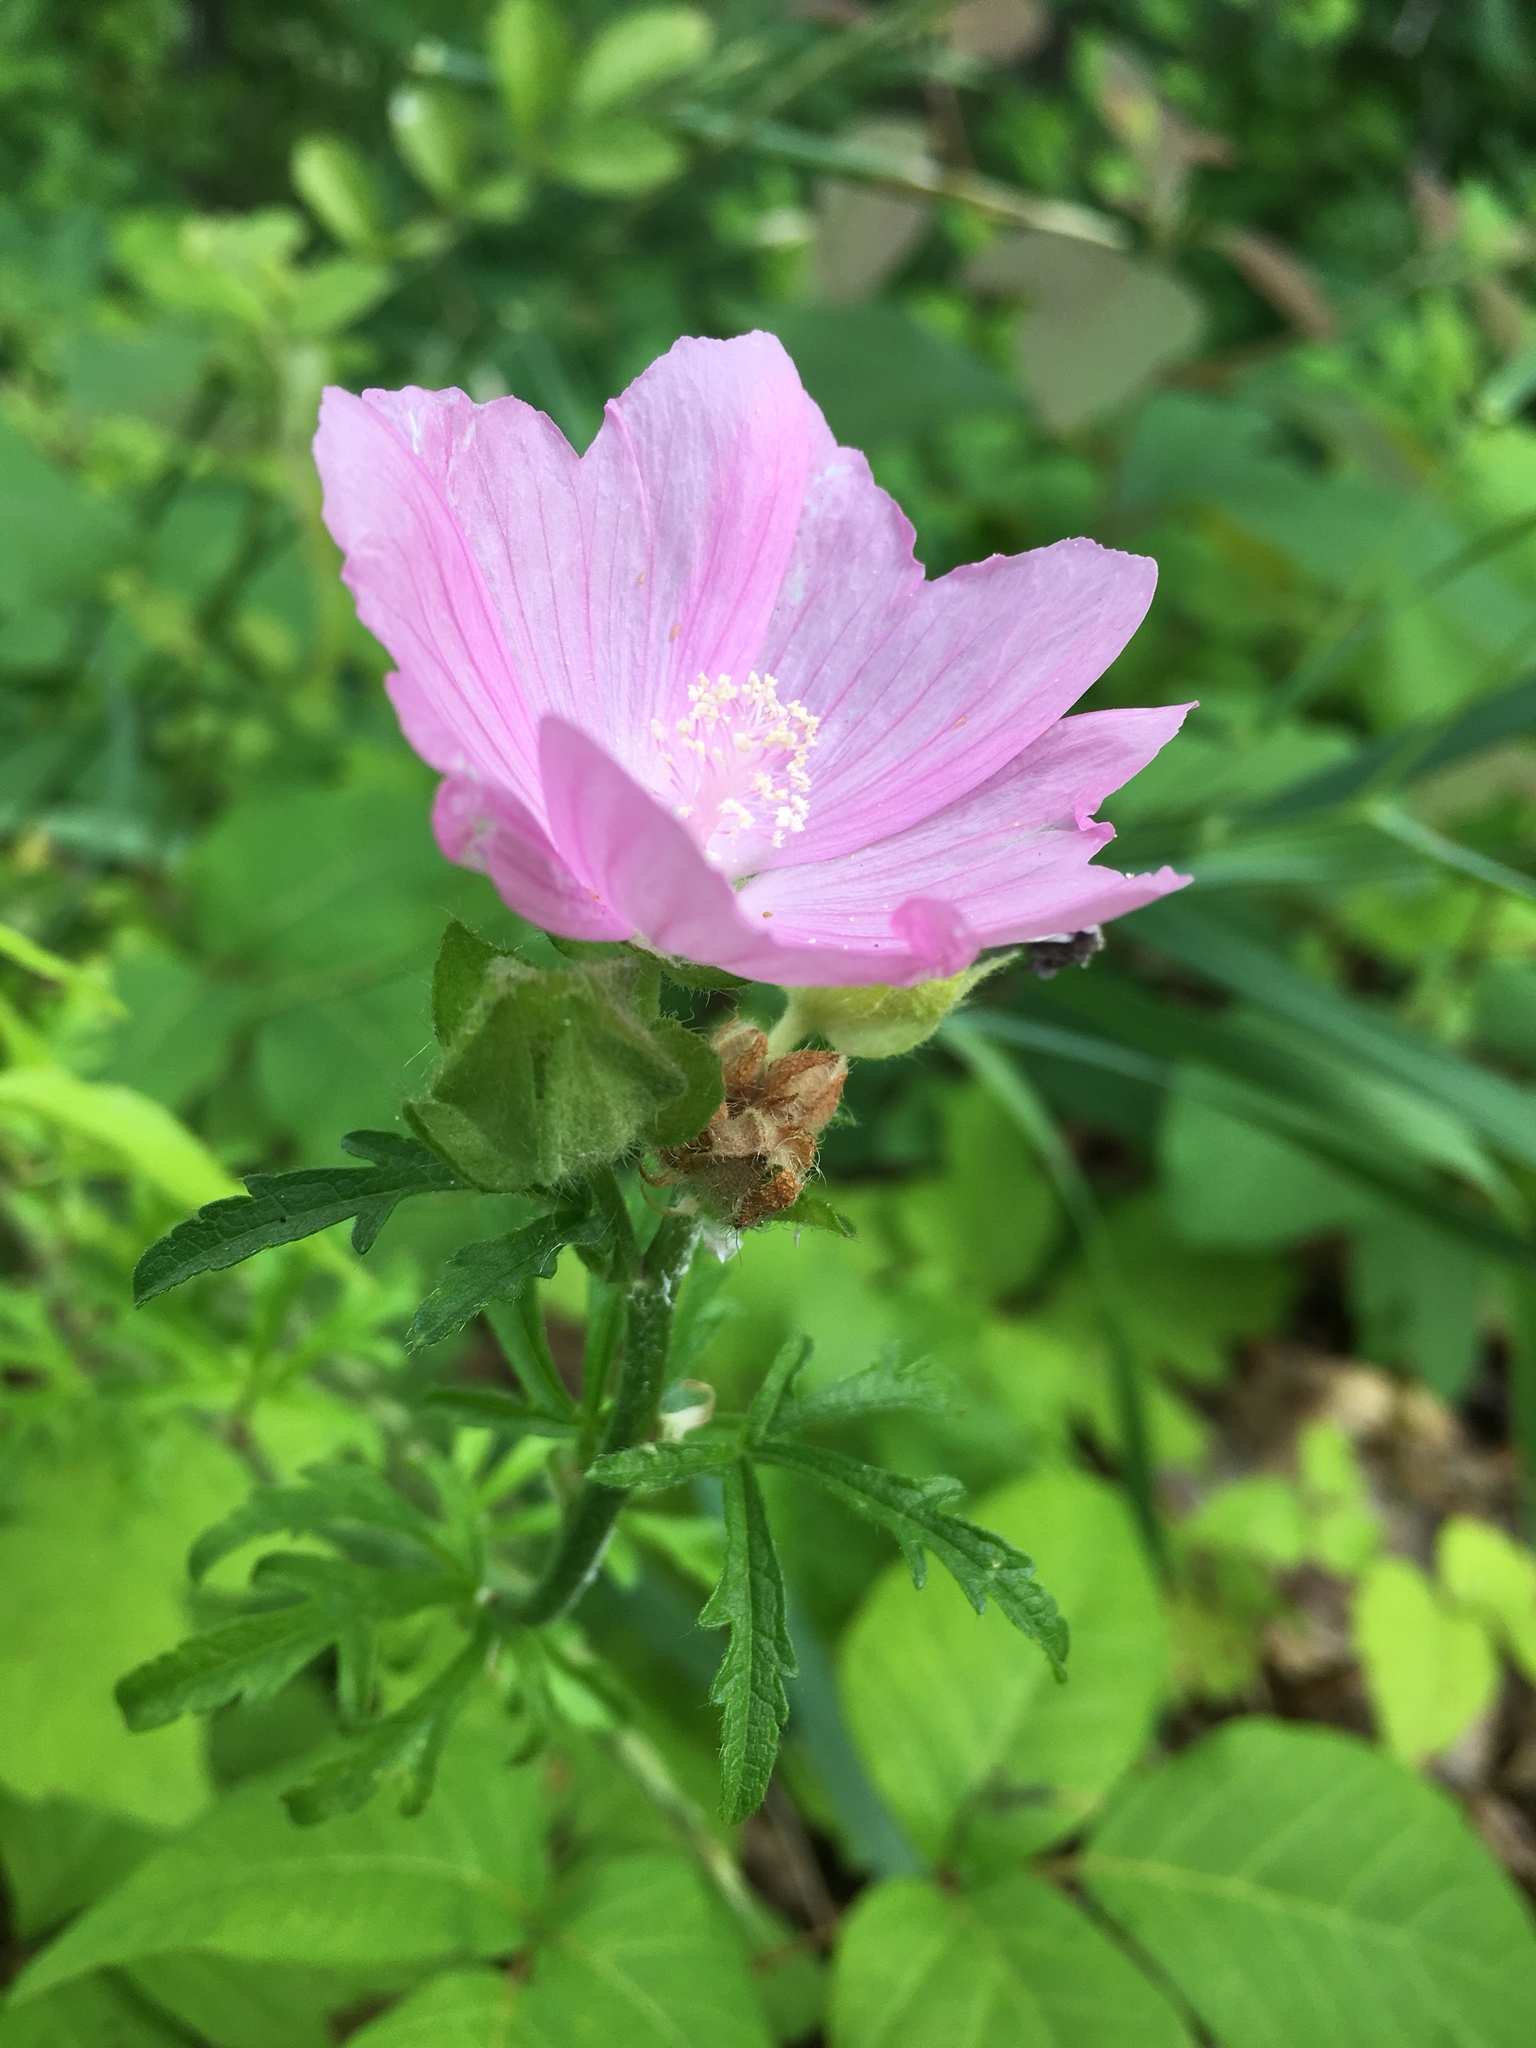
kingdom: Plantae
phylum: Tracheophyta
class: Magnoliopsida
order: Malvales
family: Malvaceae
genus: Malva
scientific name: Malva moschata
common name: Musk mallow
